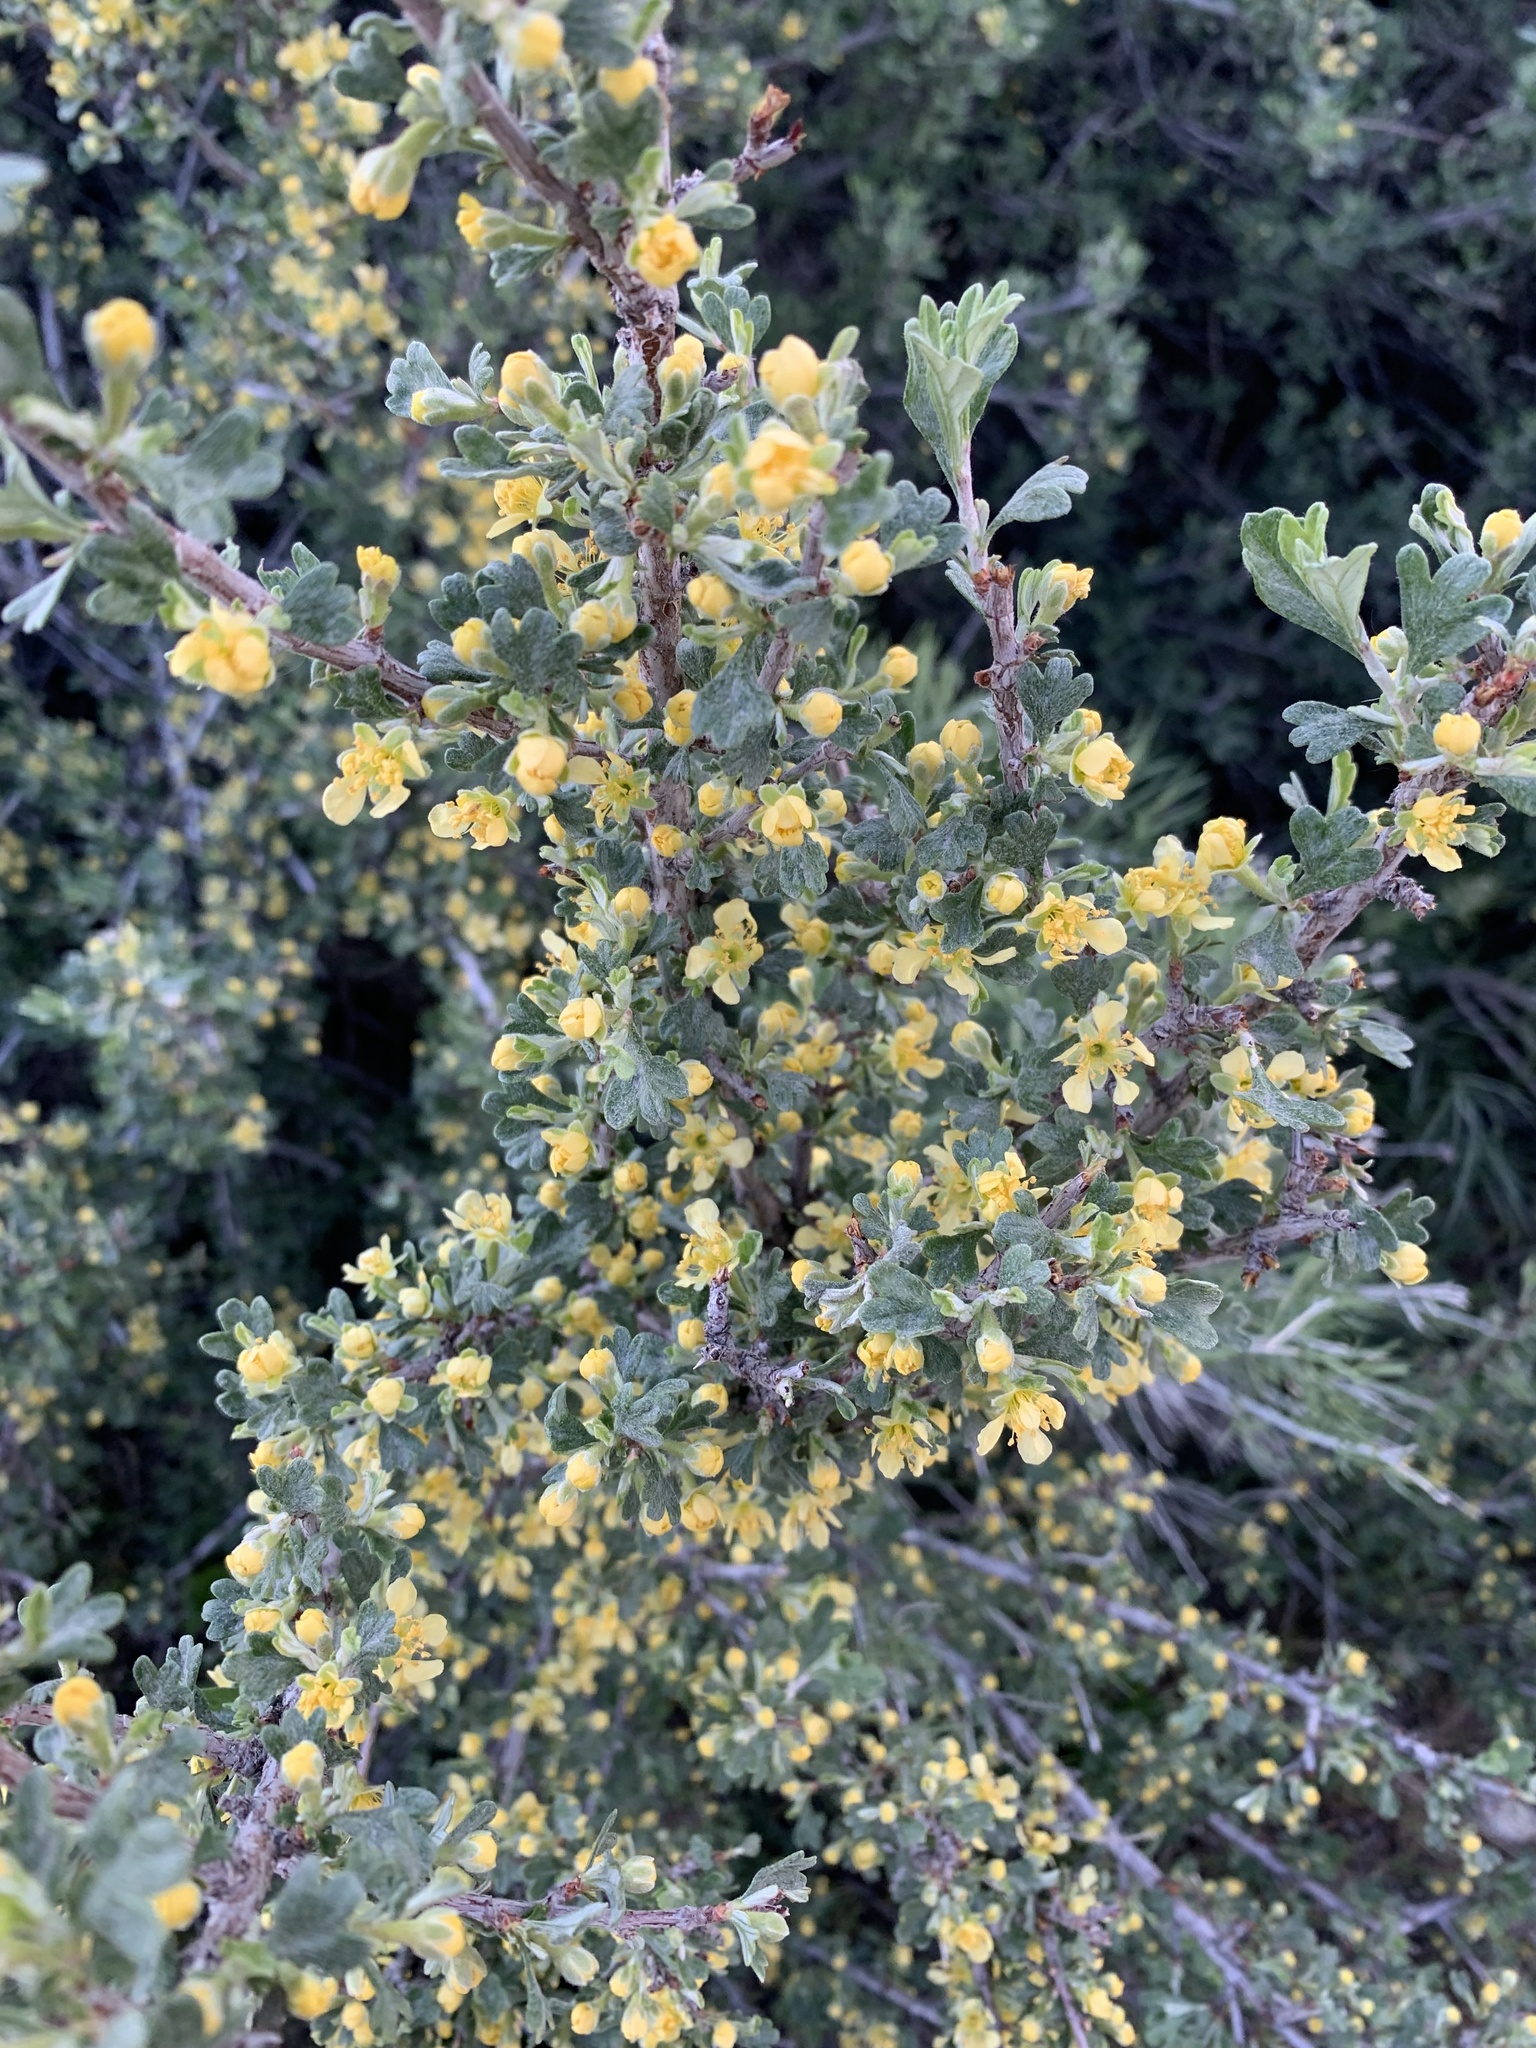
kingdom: Plantae
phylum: Tracheophyta
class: Magnoliopsida
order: Rosales
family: Rosaceae
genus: Purshia
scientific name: Purshia tridentata
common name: Antelope bitterbrush
